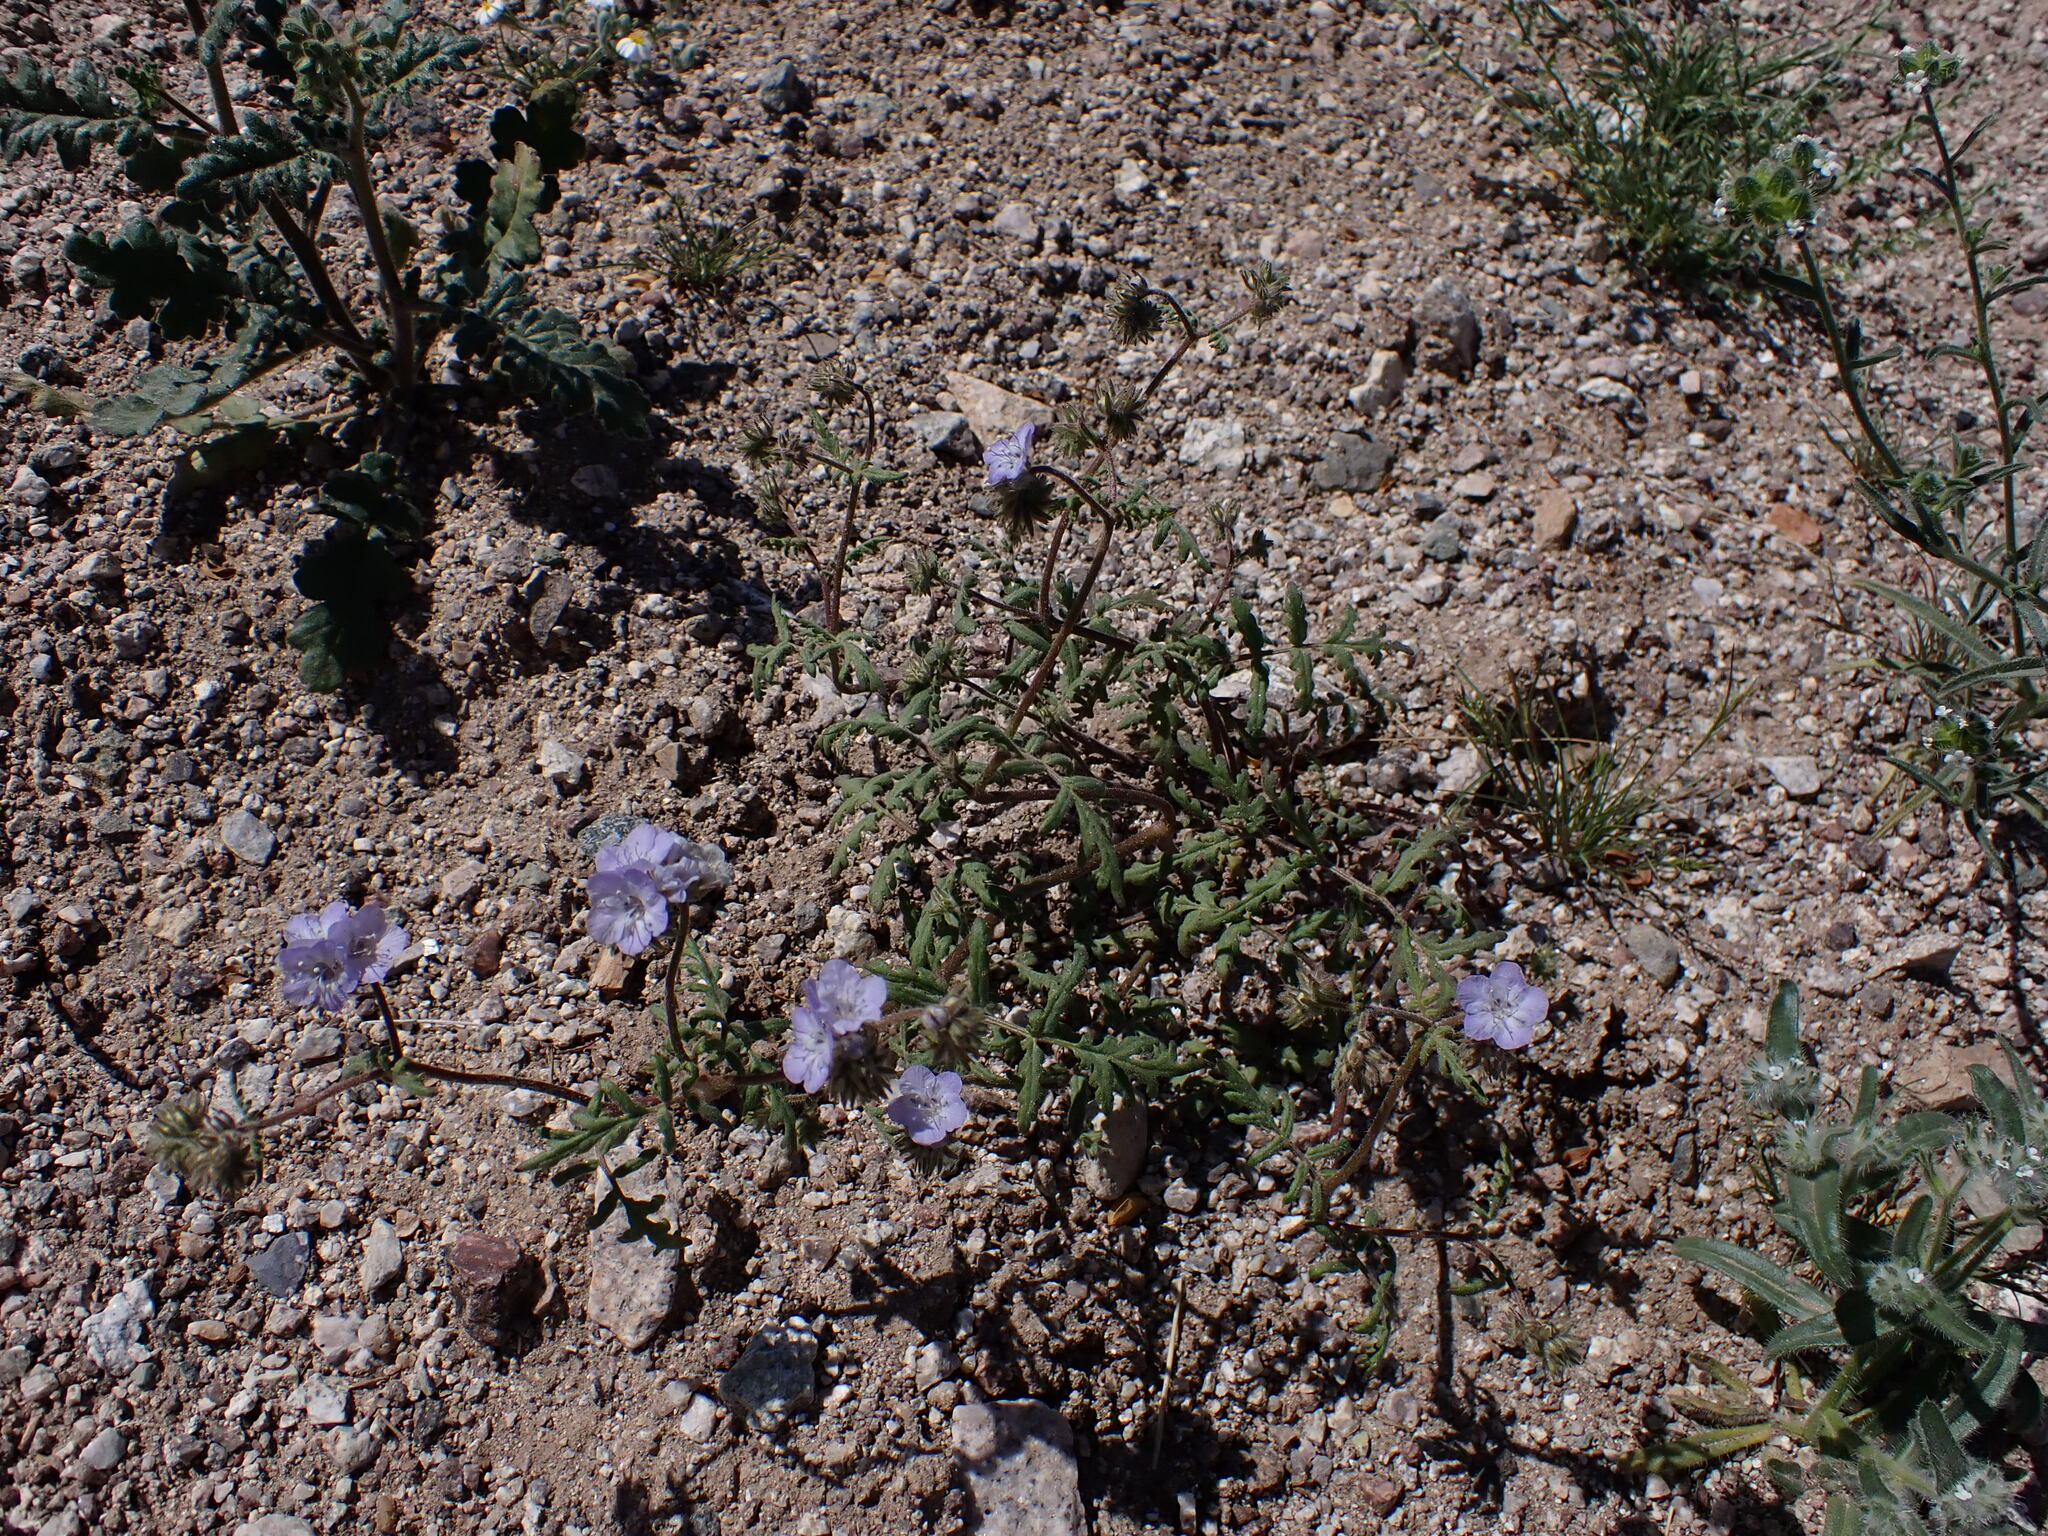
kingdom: Plantae
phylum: Tracheophyta
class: Magnoliopsida
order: Boraginales
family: Hydrophyllaceae
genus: Phacelia
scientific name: Phacelia distans
